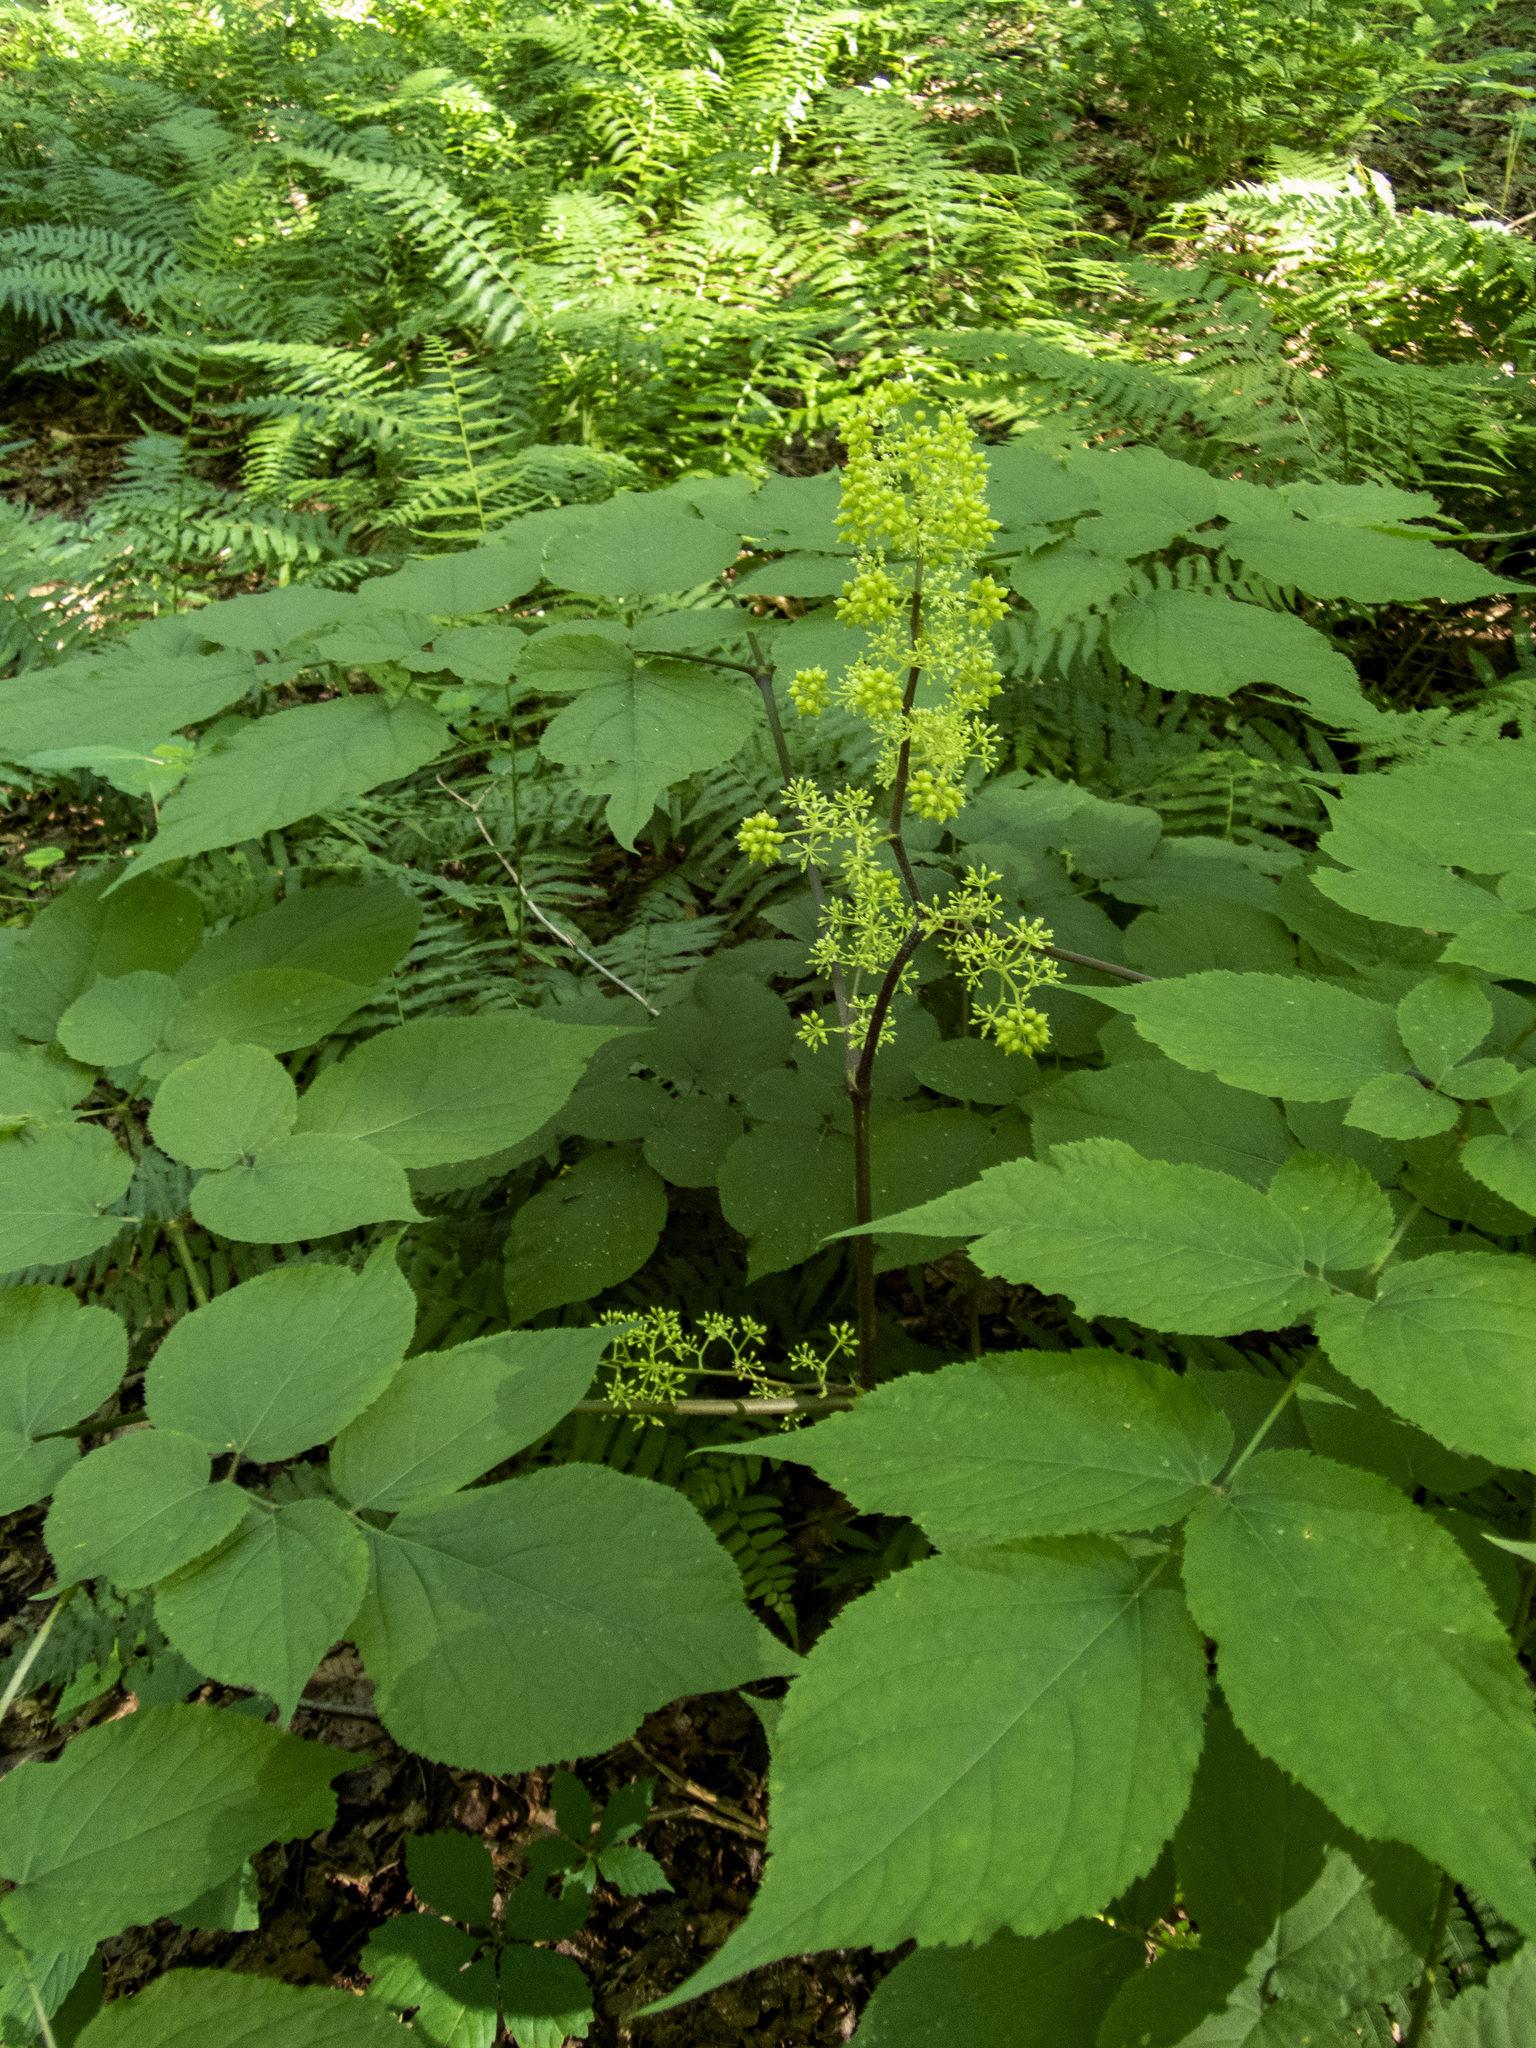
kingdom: Plantae
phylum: Tracheophyta
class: Magnoliopsida
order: Apiales
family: Araliaceae
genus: Aralia
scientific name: Aralia racemosa
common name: American-spikenard
